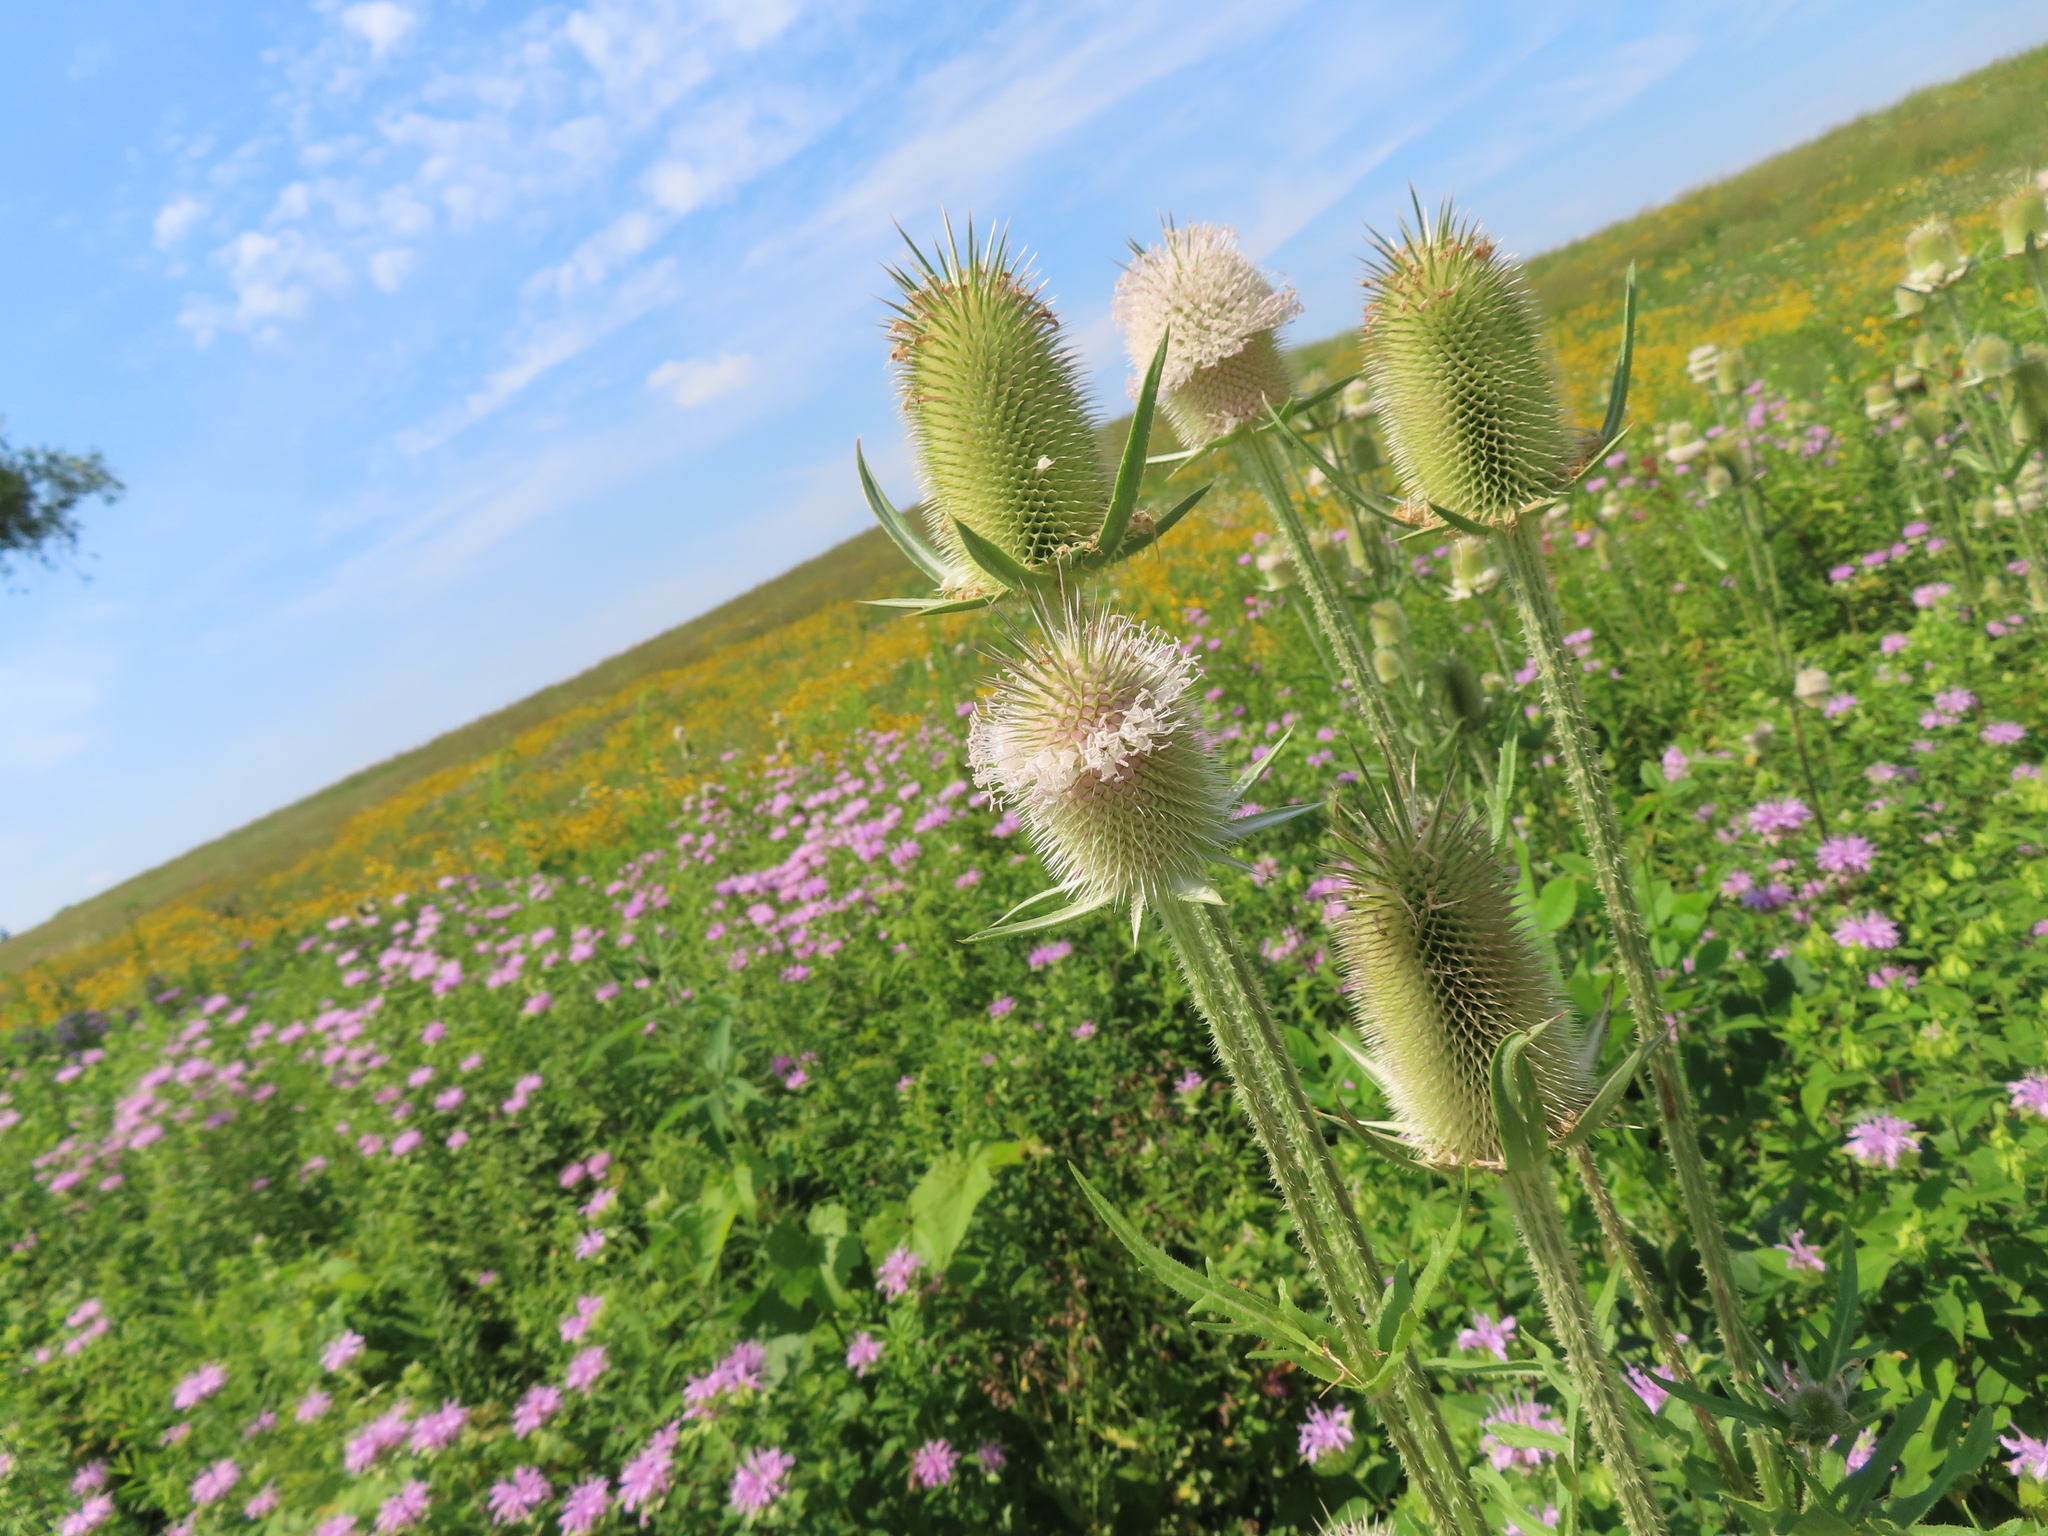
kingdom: Plantae
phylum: Tracheophyta
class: Magnoliopsida
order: Dipsacales
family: Caprifoliaceae
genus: Dipsacus
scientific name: Dipsacus laciniatus
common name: Cut-leaved teasel
